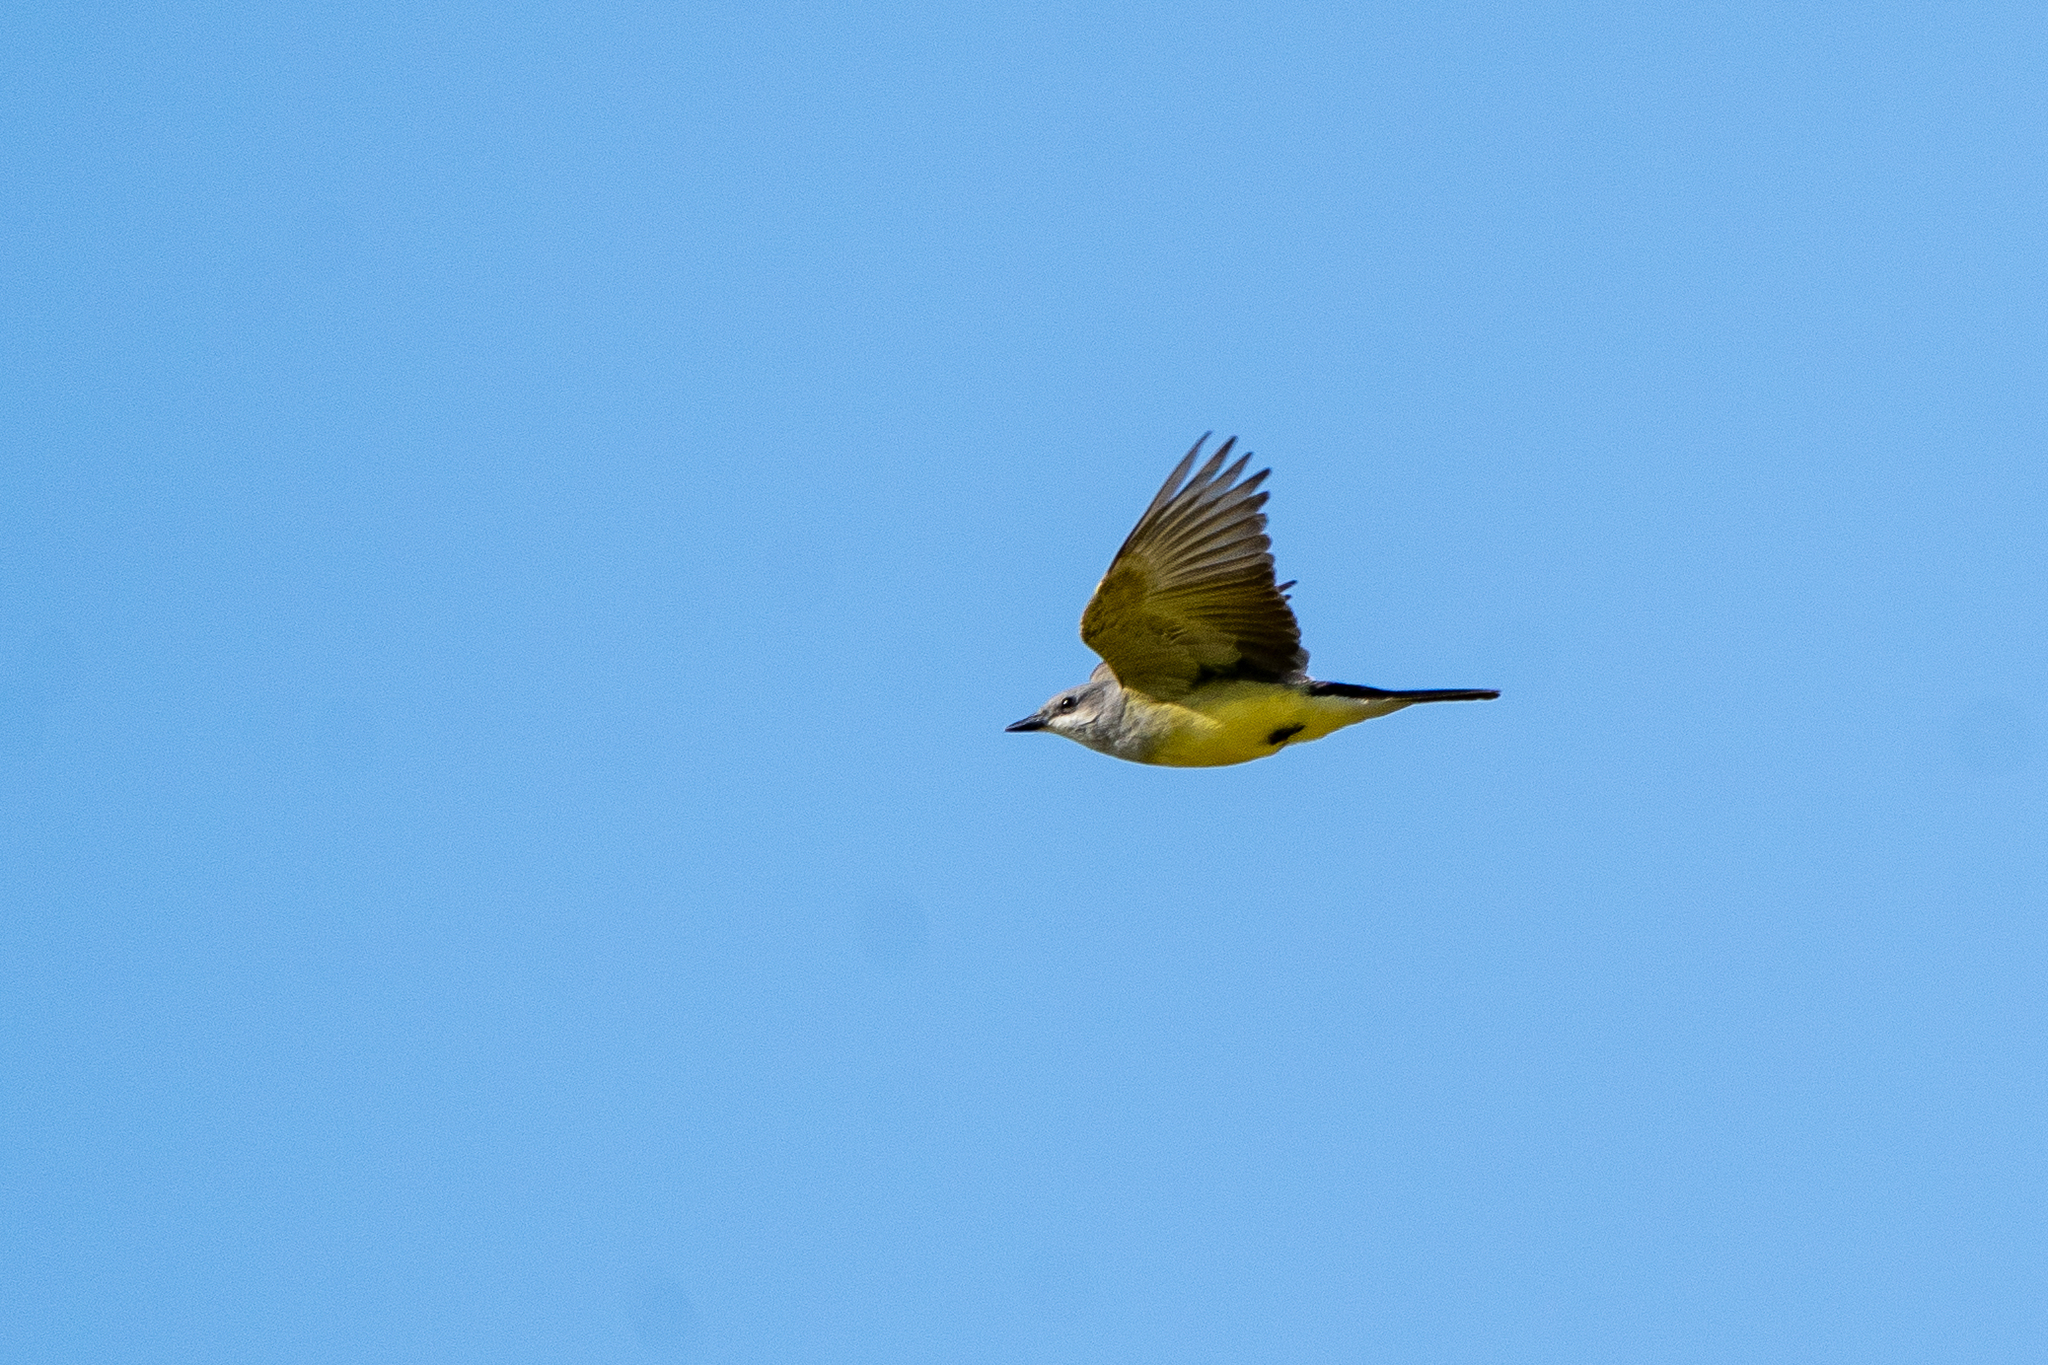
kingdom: Animalia
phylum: Chordata
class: Aves
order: Passeriformes
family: Tyrannidae
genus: Tyrannus
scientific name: Tyrannus vociferans
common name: Cassin's kingbird
